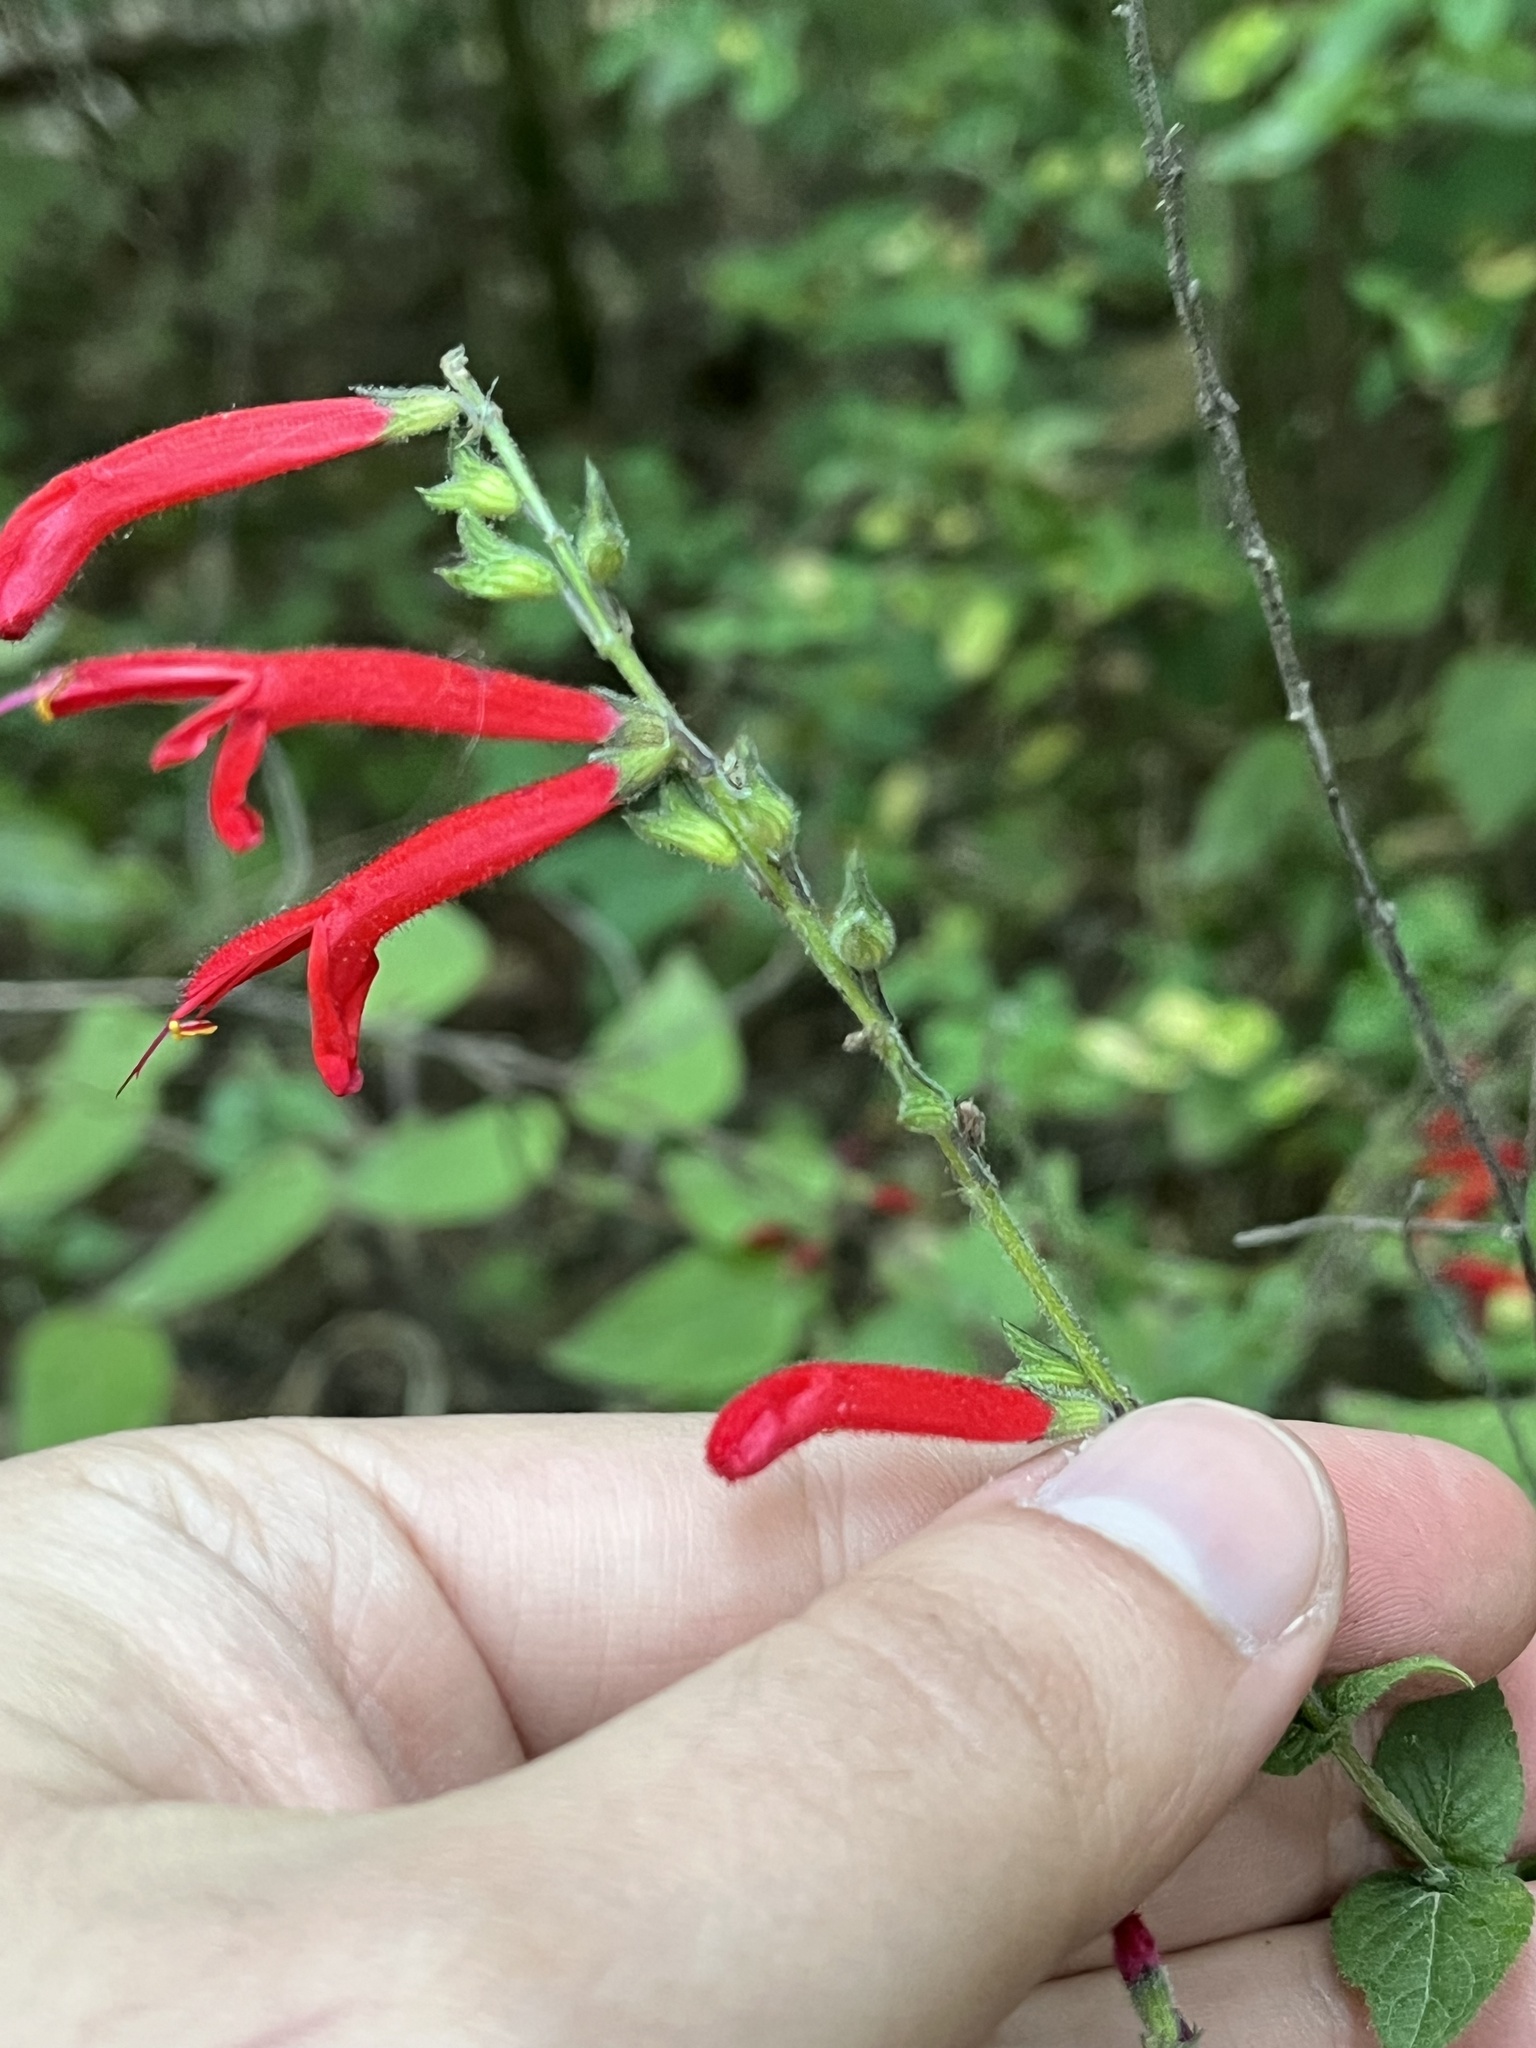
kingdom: Plantae
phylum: Tracheophyta
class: Magnoliopsida
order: Lamiales
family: Lamiaceae
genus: Salvia
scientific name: Salvia elegans
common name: Pineapple sage
